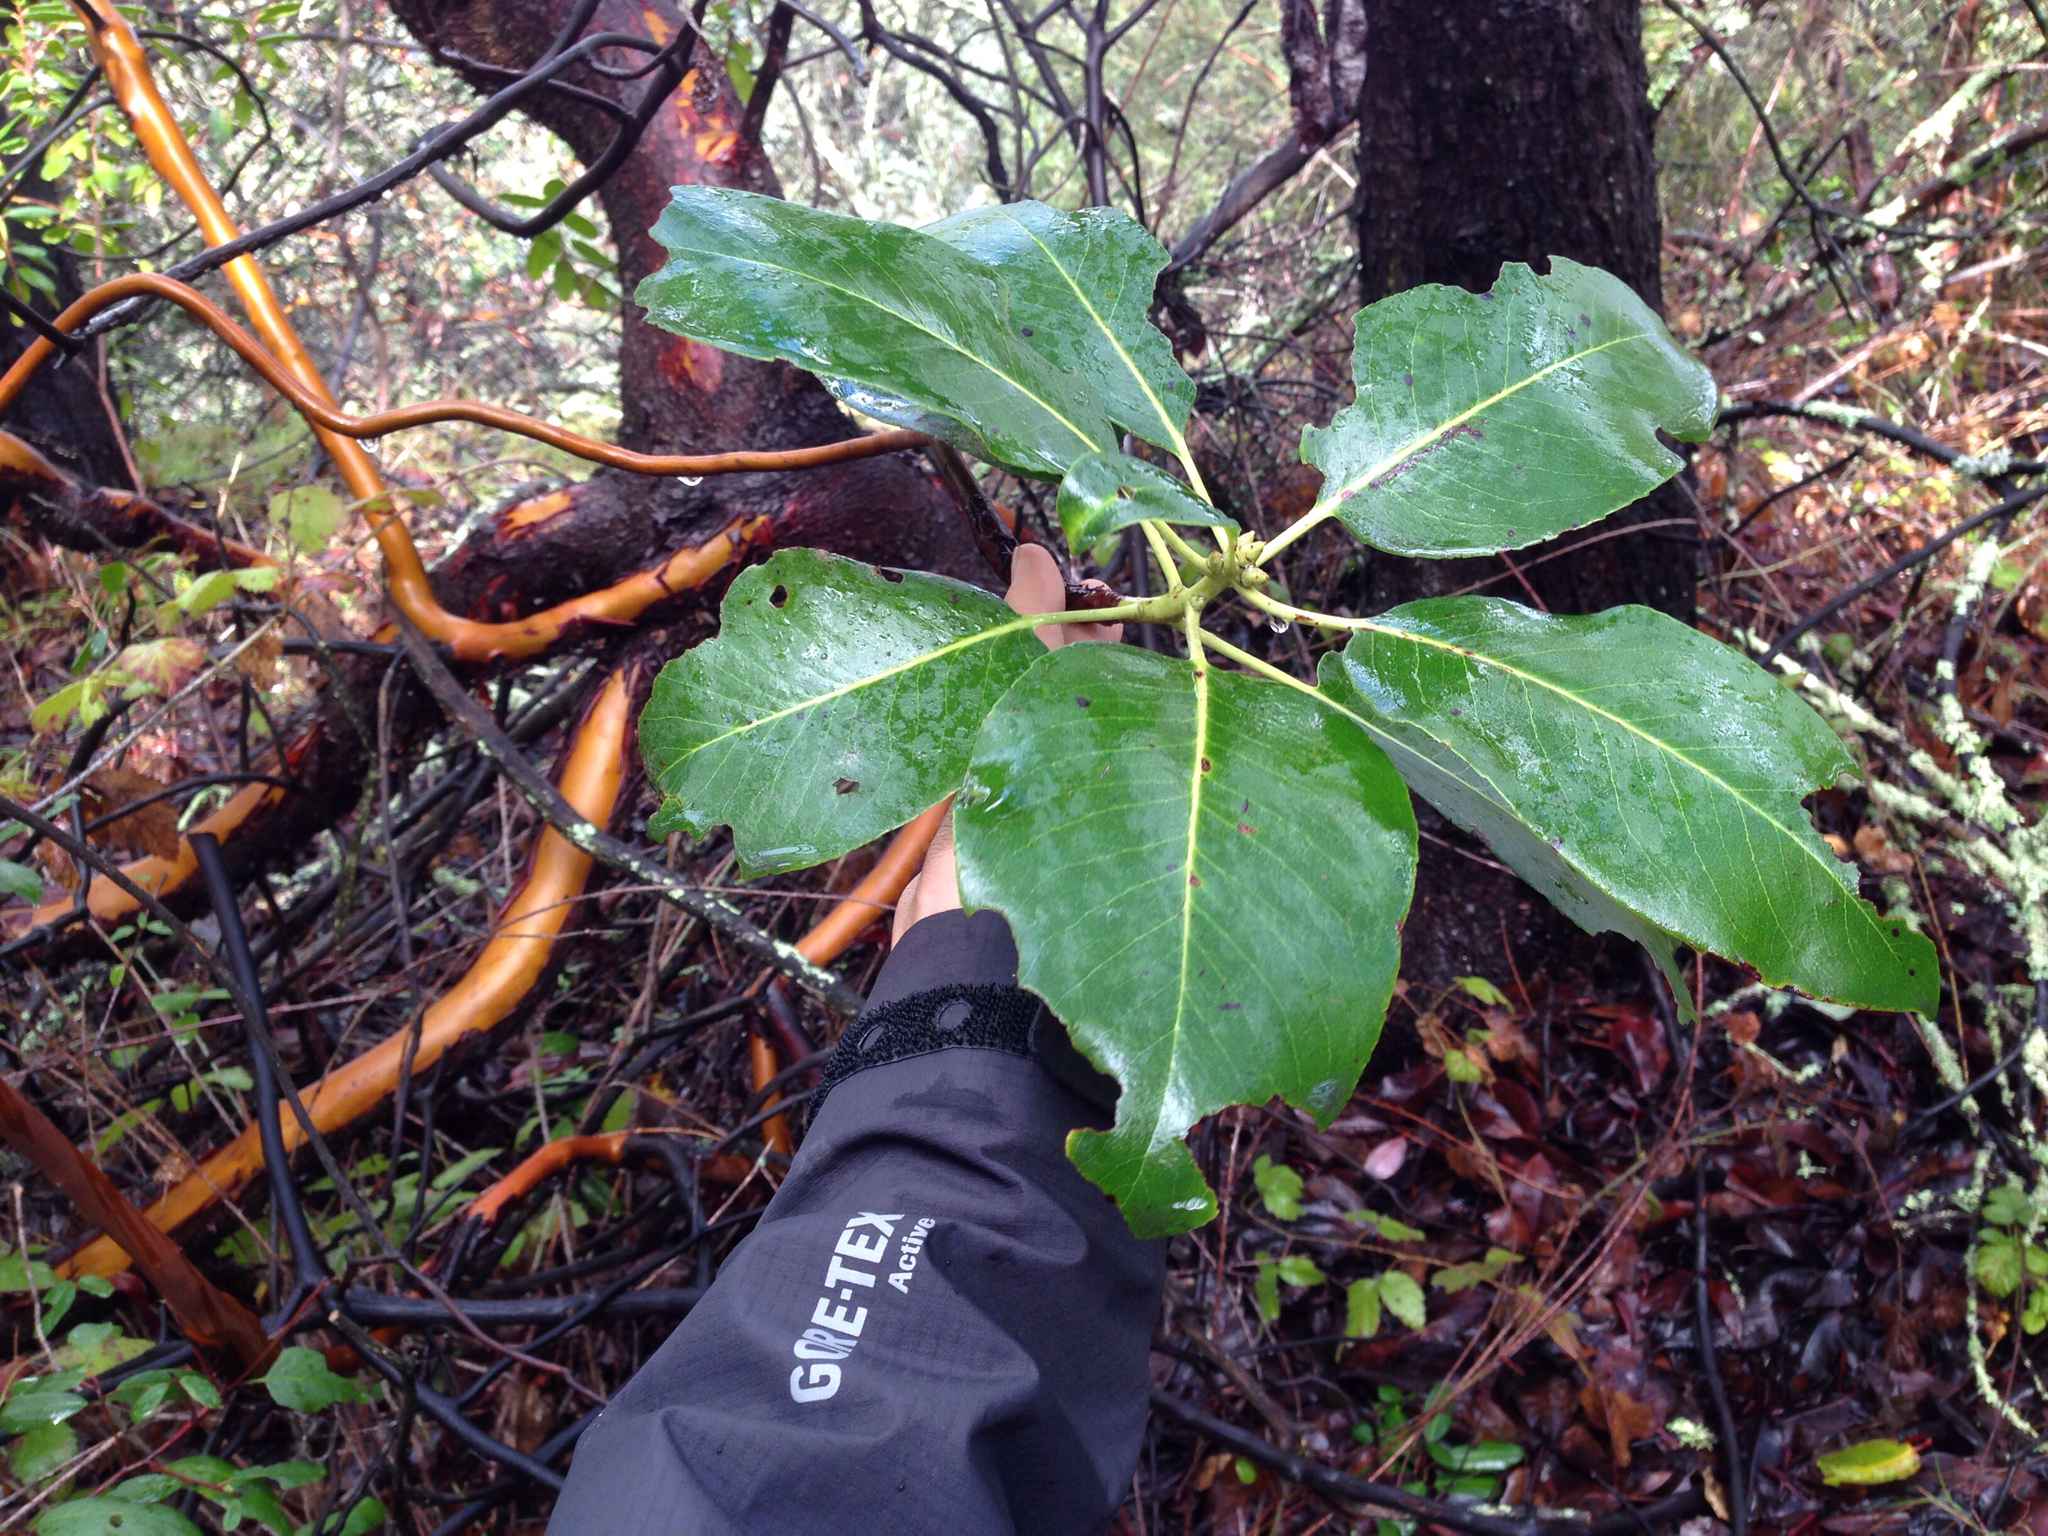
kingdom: Plantae
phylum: Tracheophyta
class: Magnoliopsida
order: Ericales
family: Ericaceae
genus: Arbutus
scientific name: Arbutus menziesii
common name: Pacific madrone
